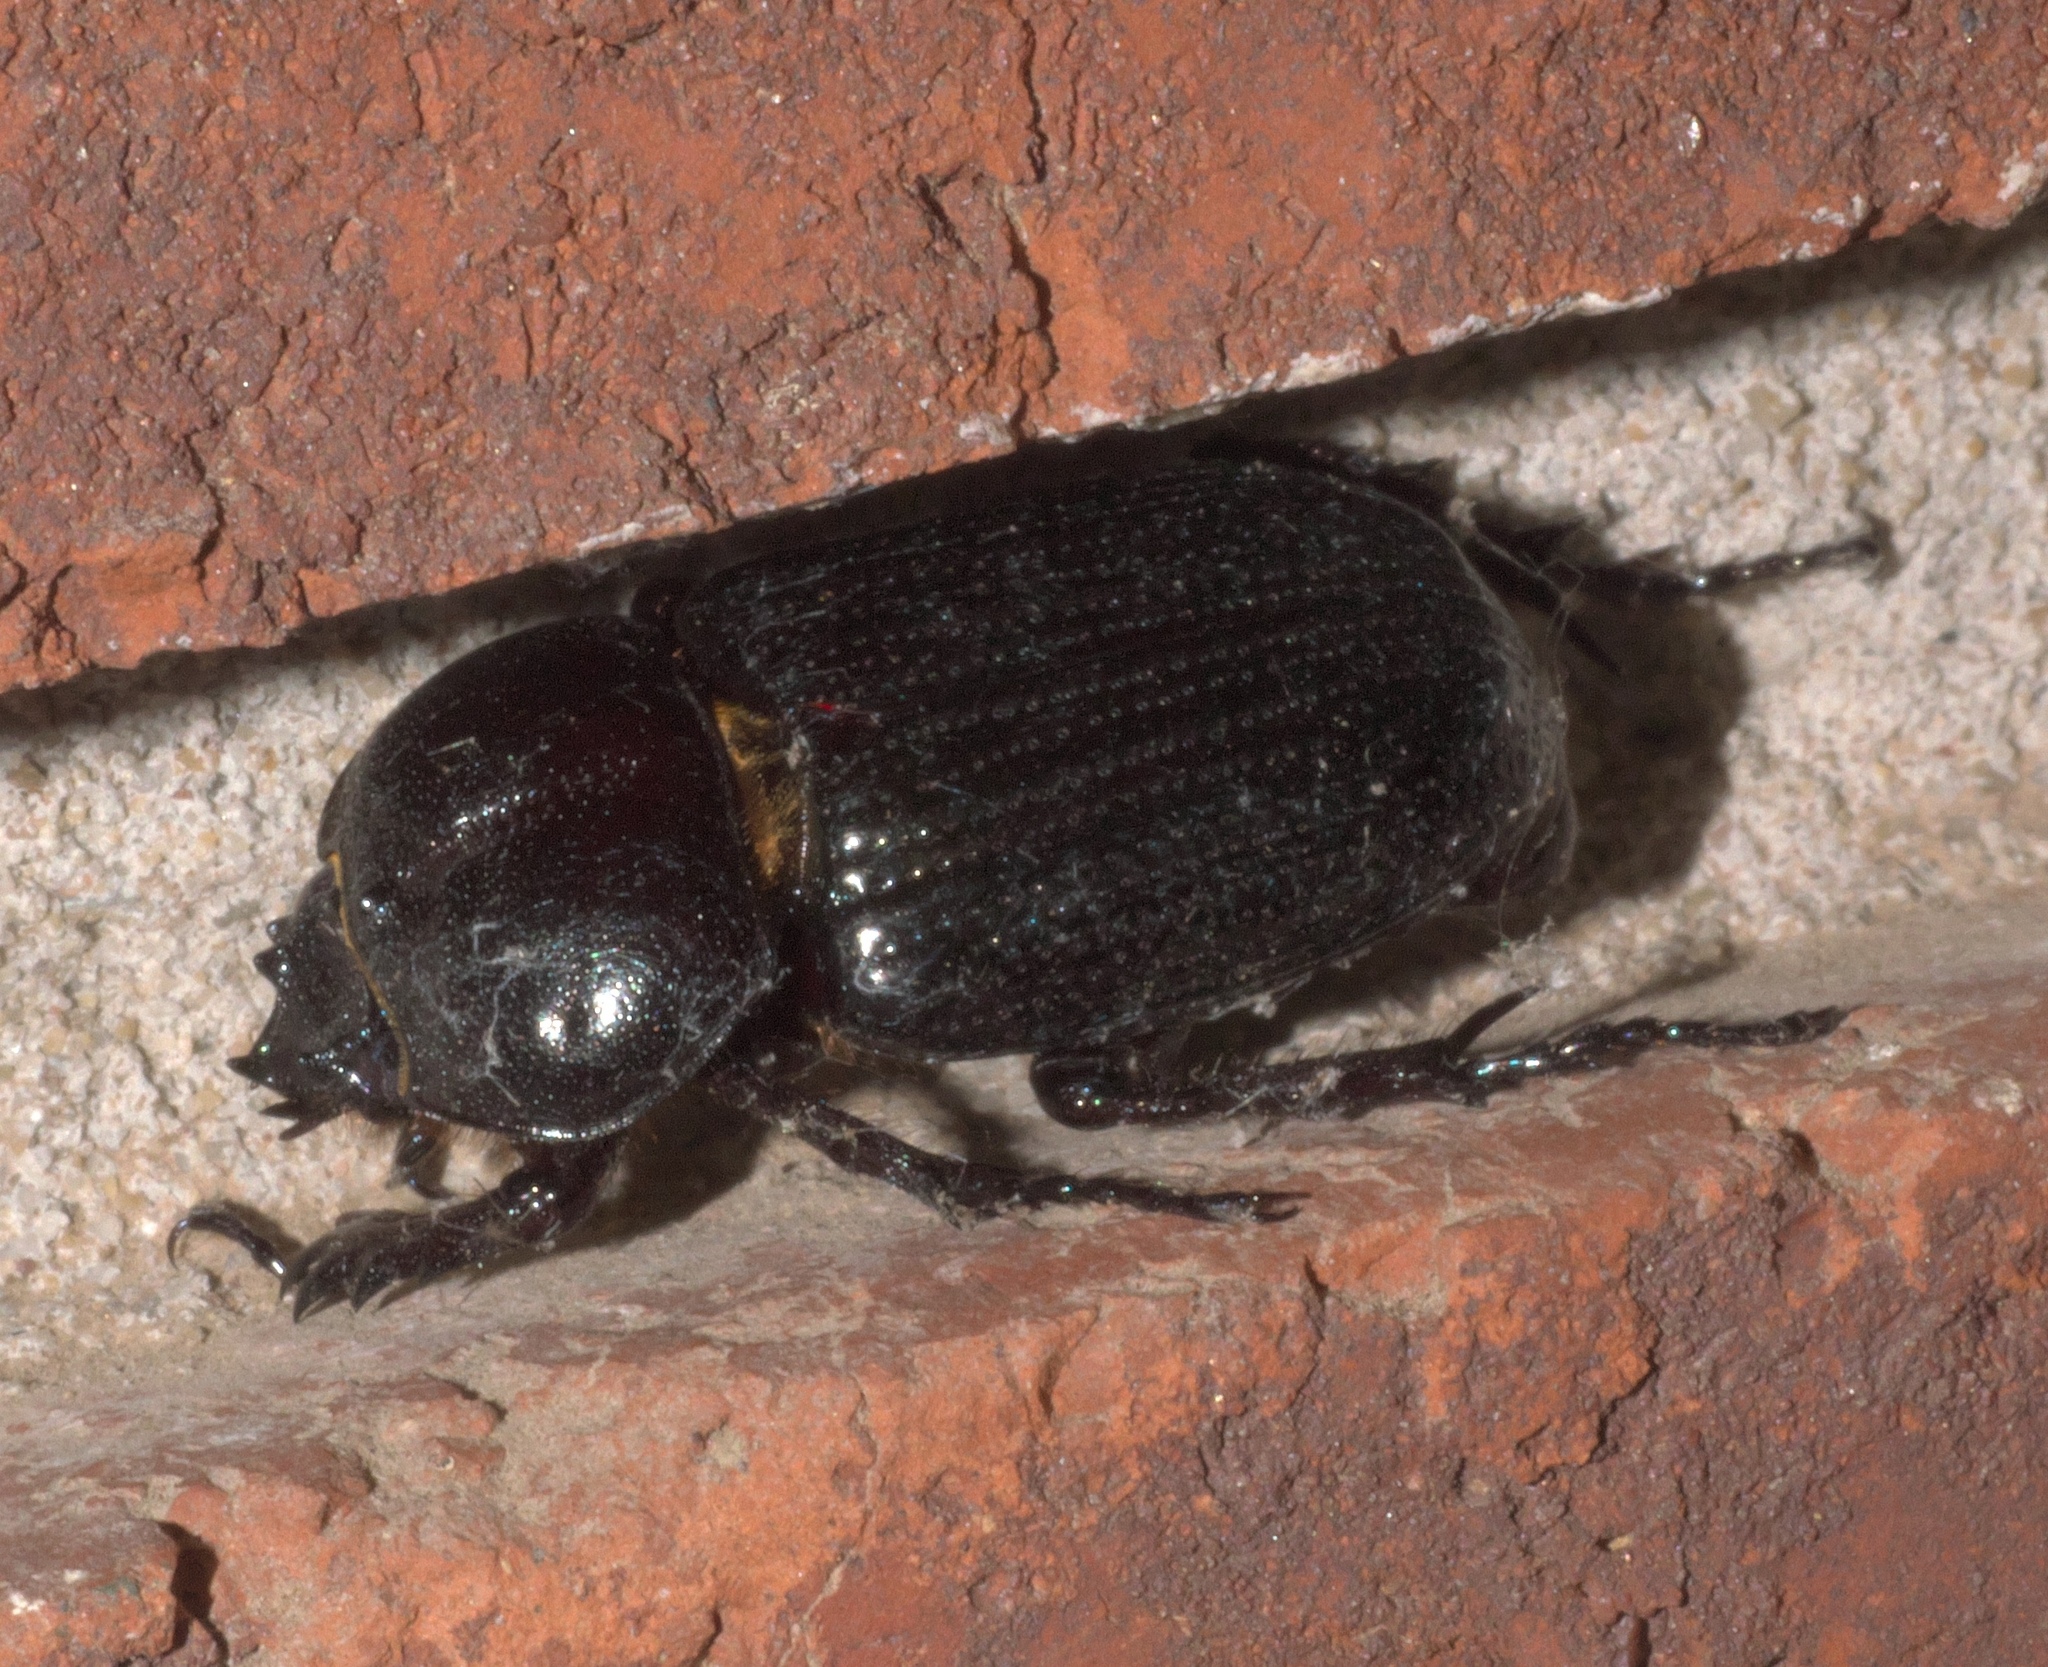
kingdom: Animalia
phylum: Arthropoda
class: Insecta
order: Coleoptera
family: Scarabaeidae
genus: Phileurus
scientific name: Phileurus valgus
